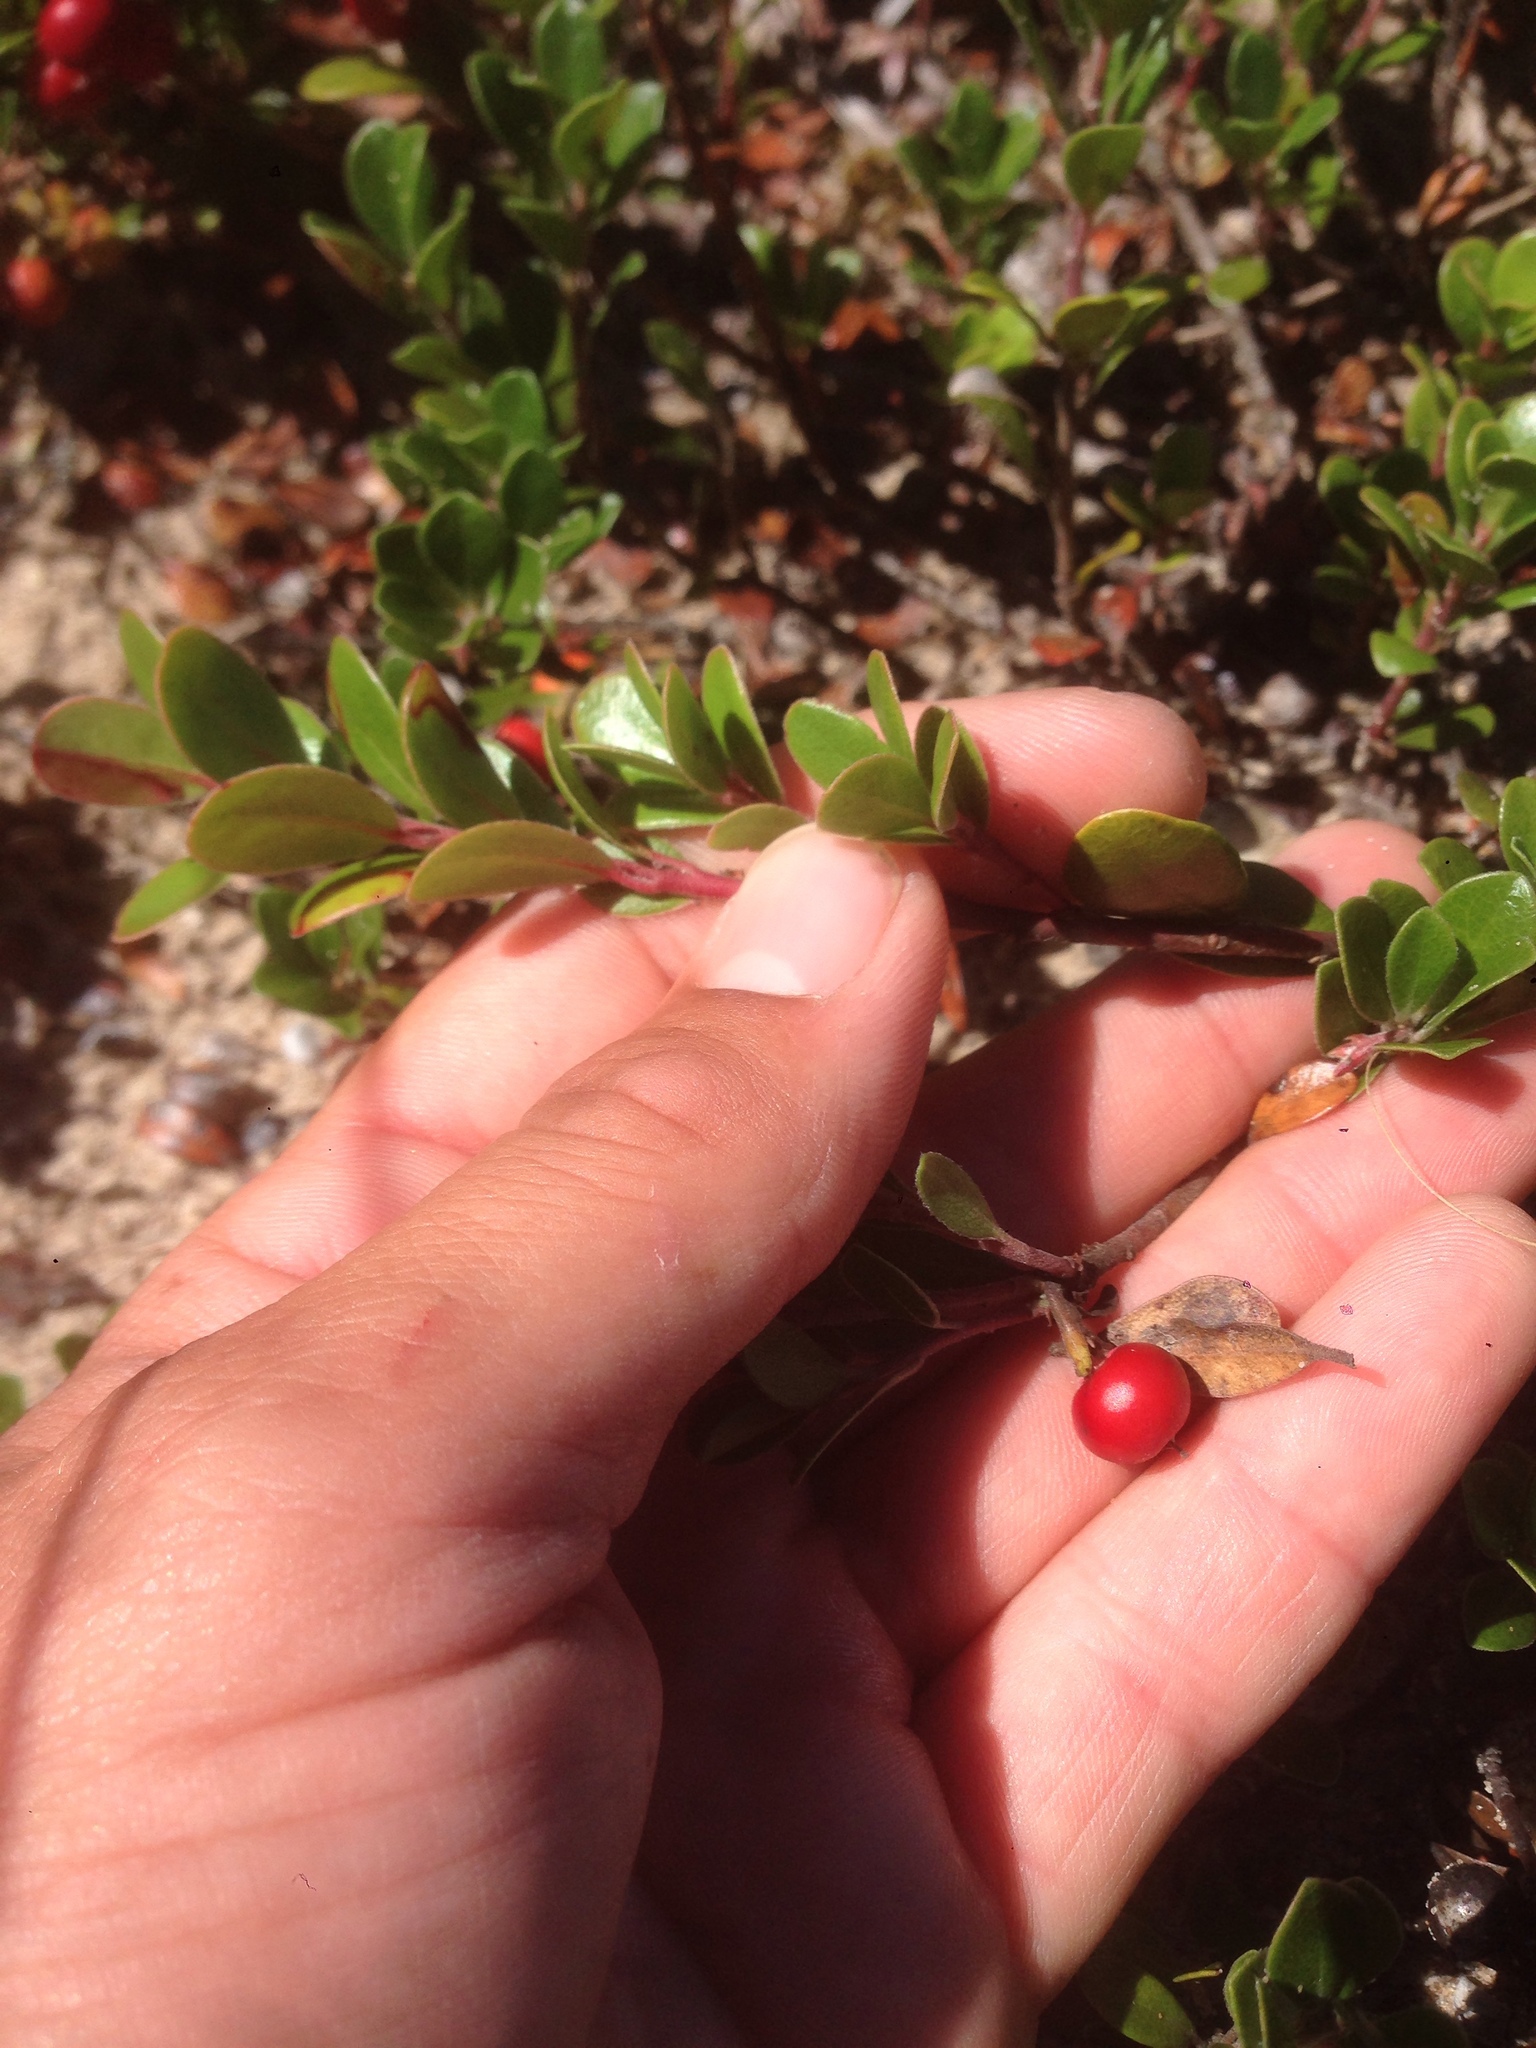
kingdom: Plantae
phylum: Tracheophyta
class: Magnoliopsida
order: Ericales
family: Ericaceae
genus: Arctostaphylos
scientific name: Arctostaphylos uva-ursi
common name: Bearberry
